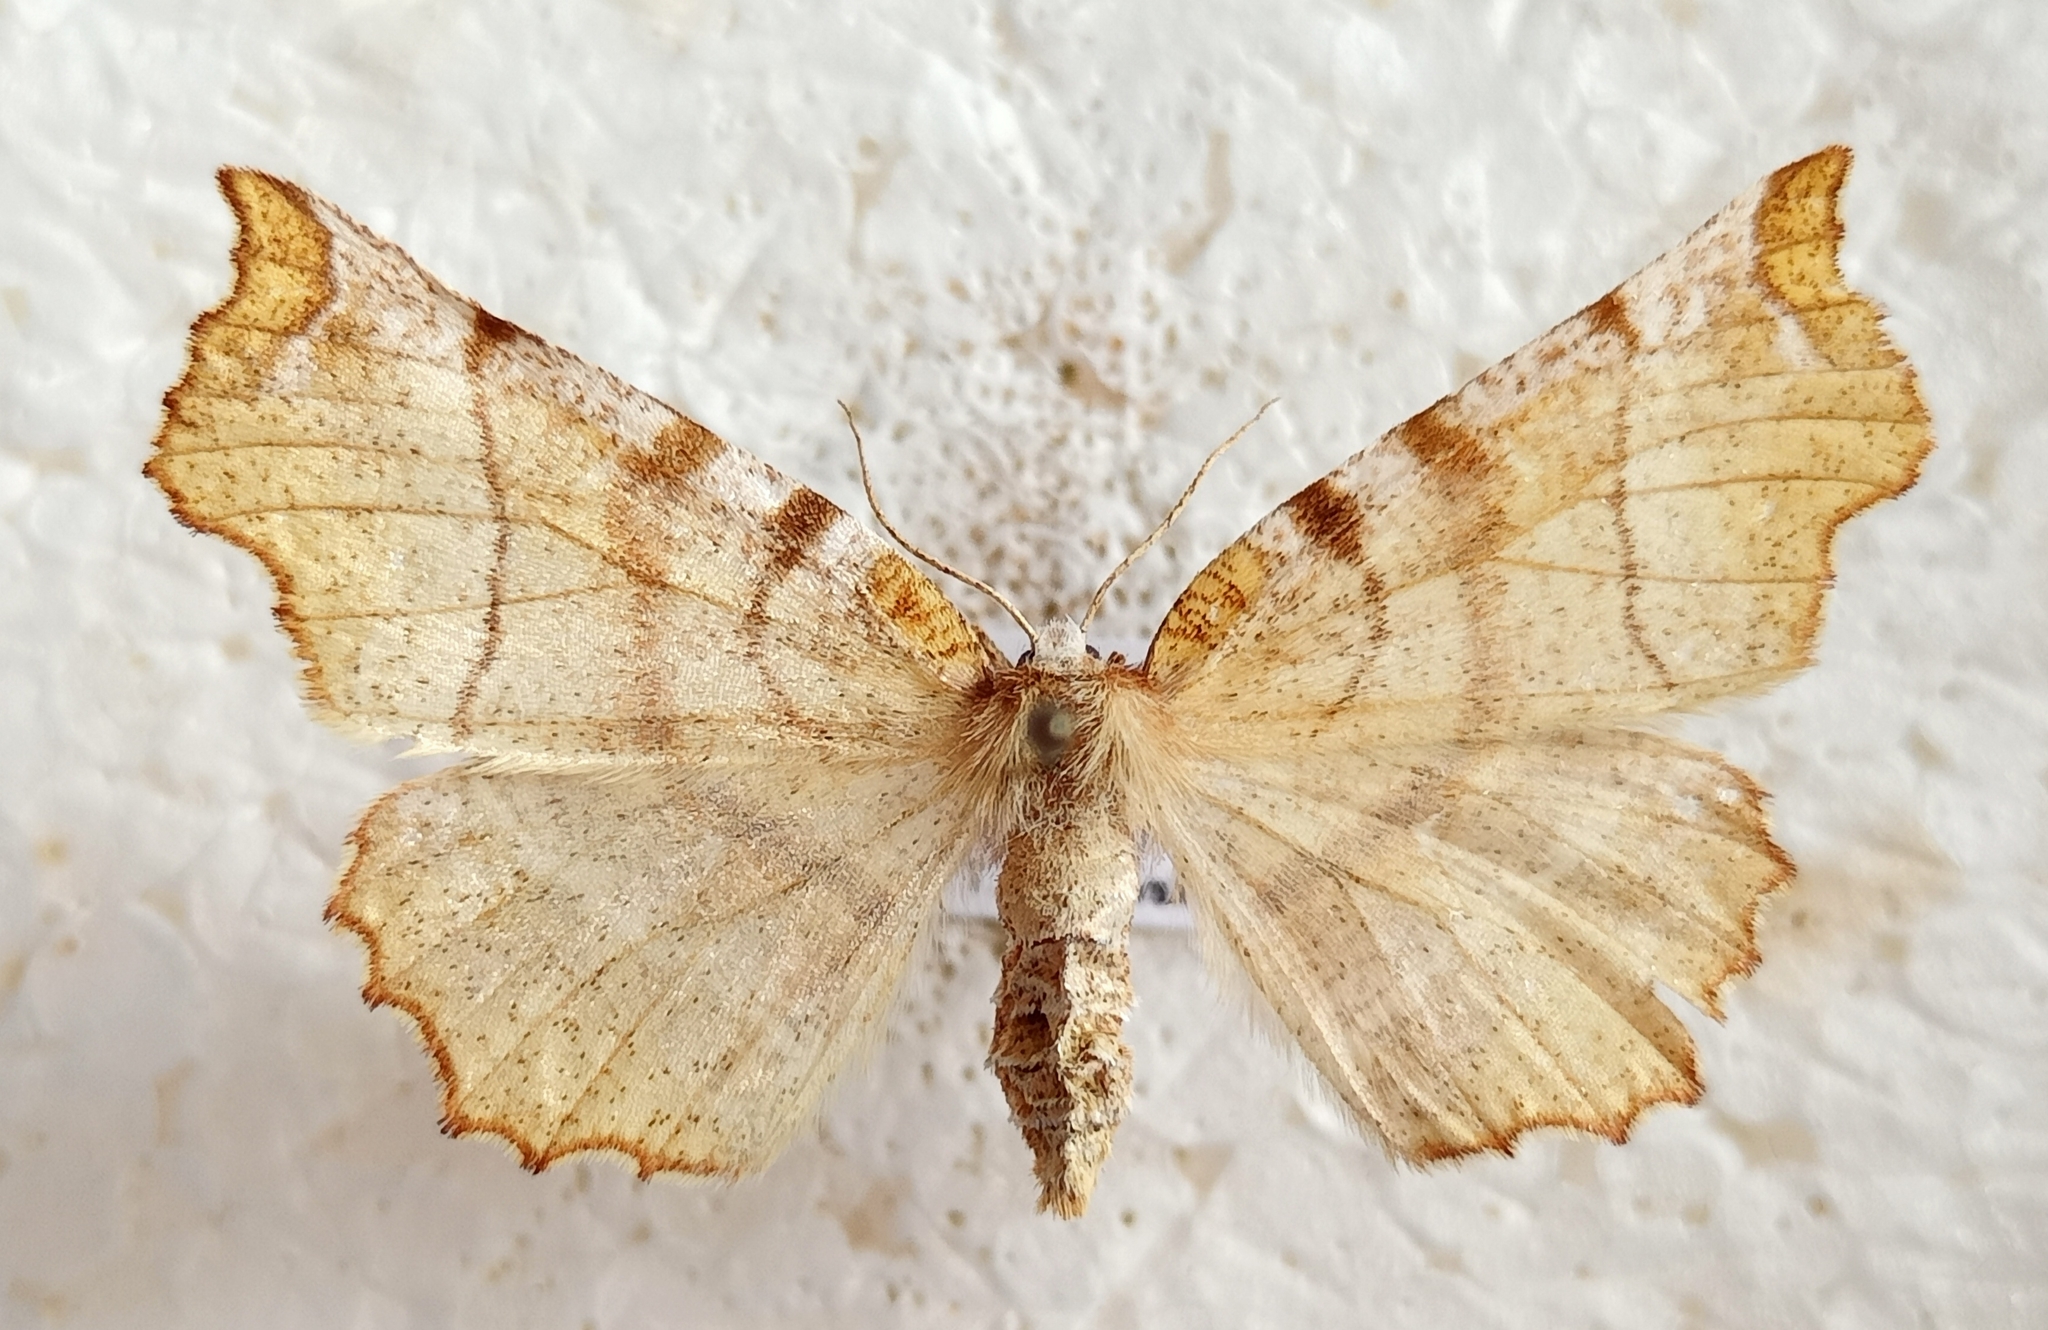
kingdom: Animalia
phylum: Arthropoda
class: Insecta
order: Lepidoptera
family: Geometridae
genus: Selenia
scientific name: Selenia dentaria
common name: Early thorn
